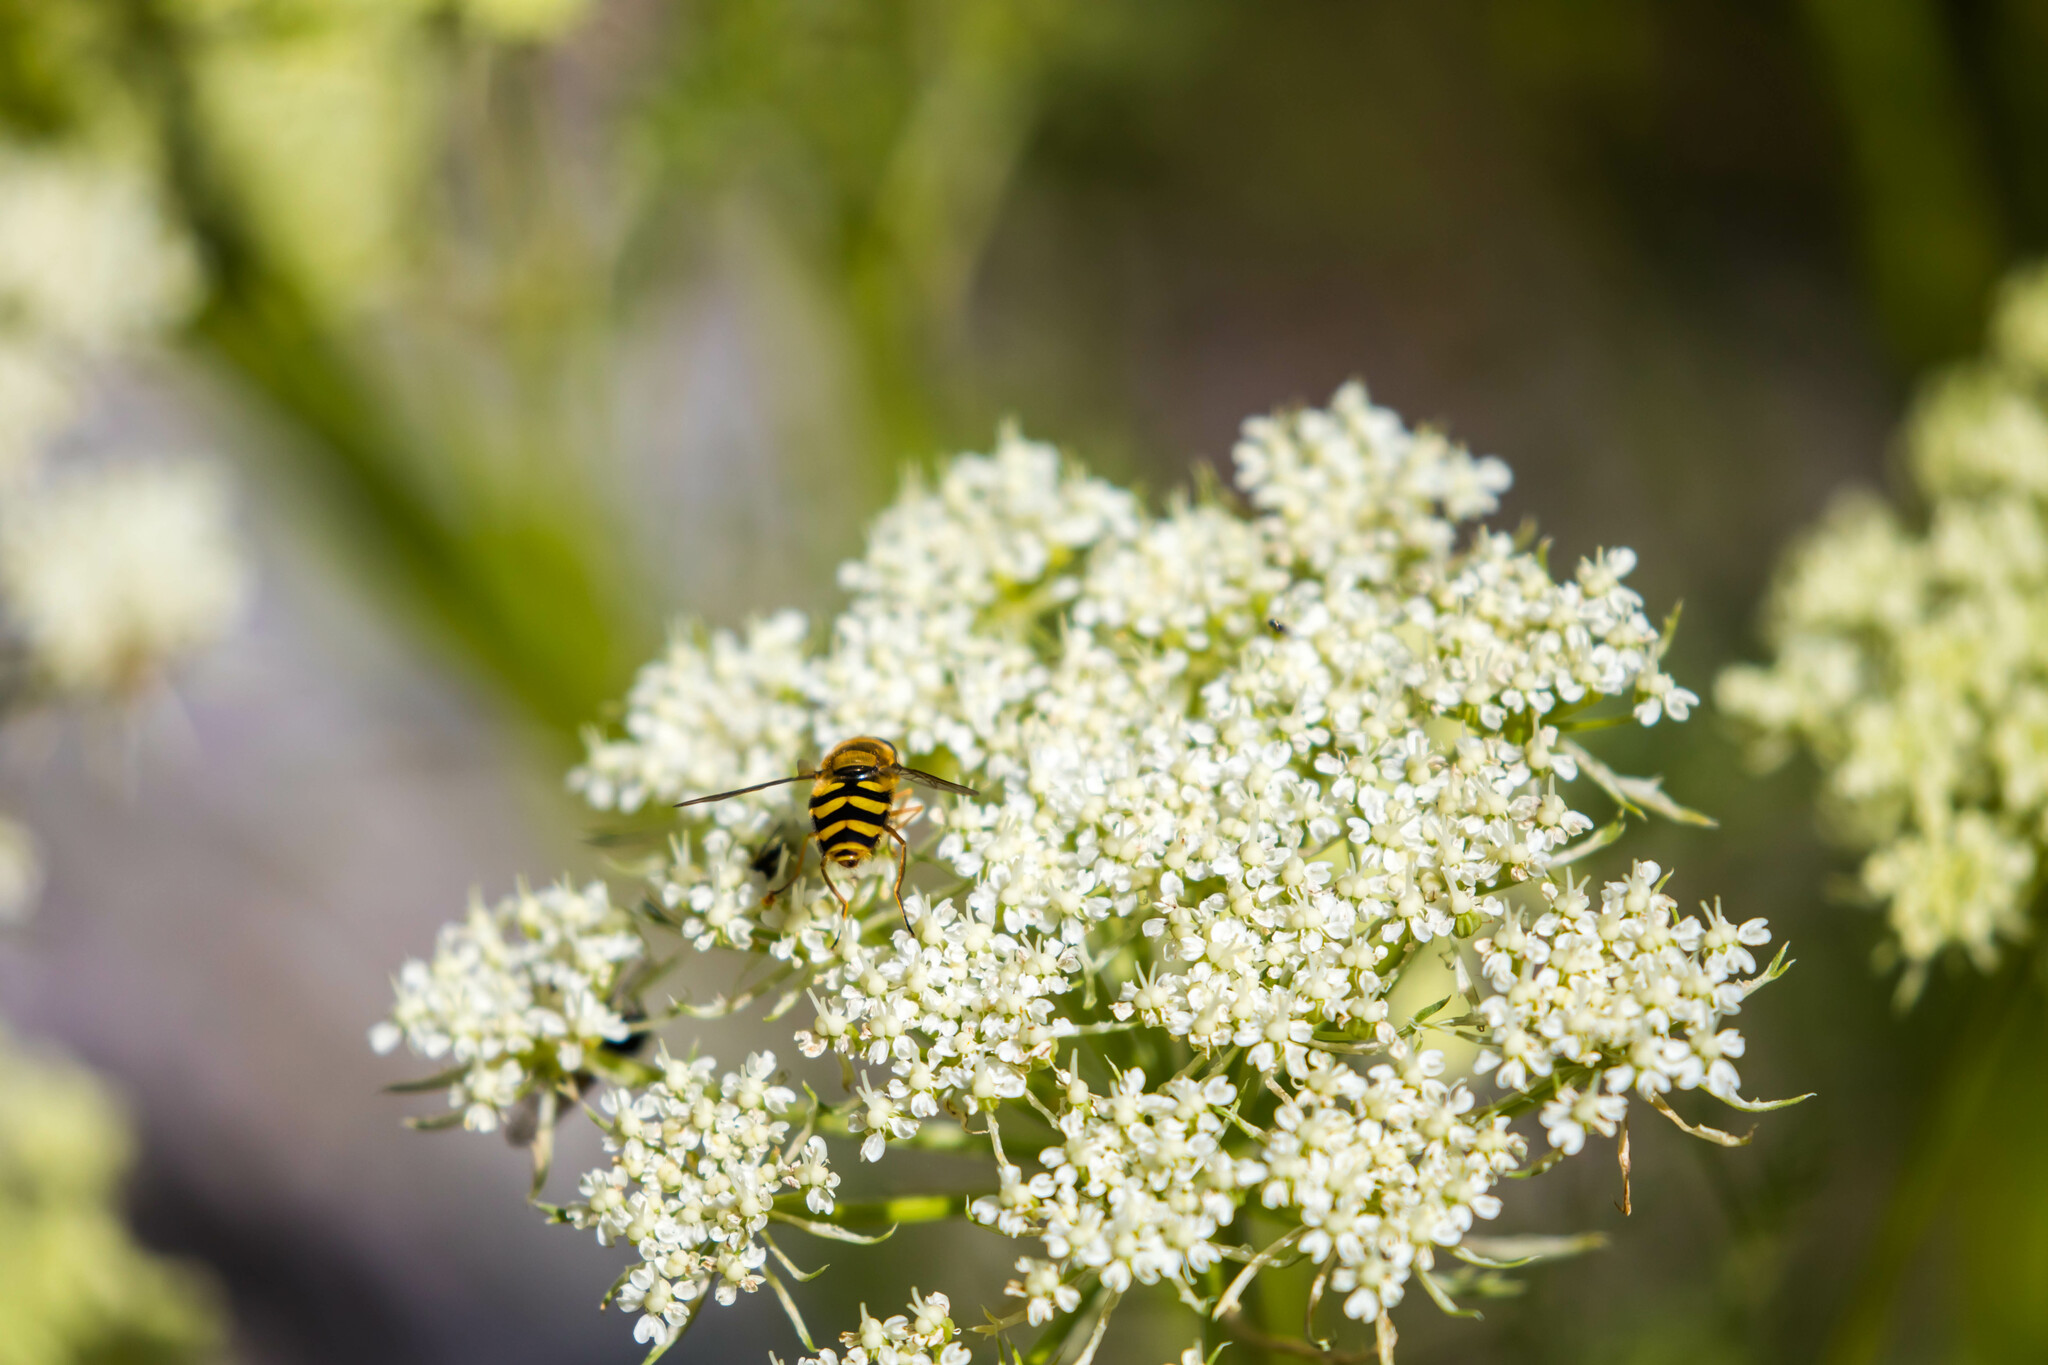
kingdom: Animalia
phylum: Arthropoda
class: Insecta
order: Diptera
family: Syrphidae
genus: Syrphus
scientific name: Syrphus
